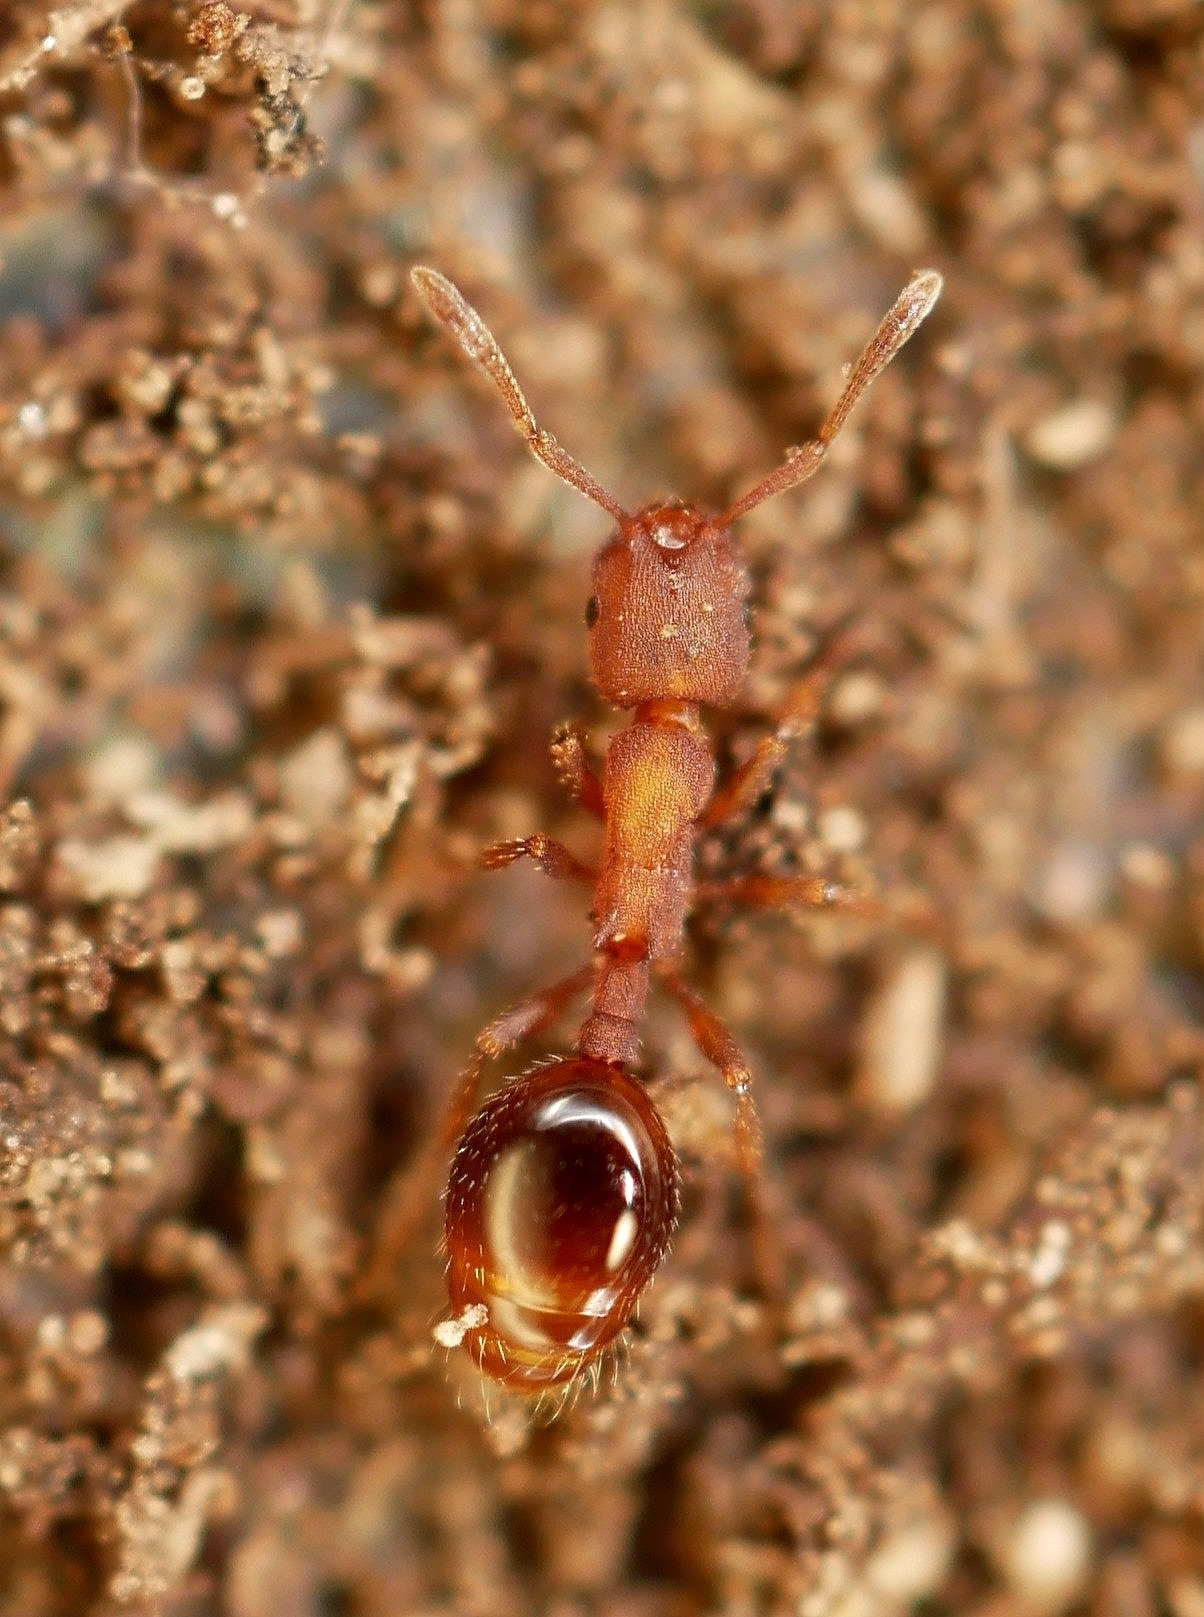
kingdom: Animalia
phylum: Arthropoda
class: Insecta
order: Hymenoptera
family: Formicidae
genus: Formicoxenus
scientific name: Formicoxenus hirticornis
